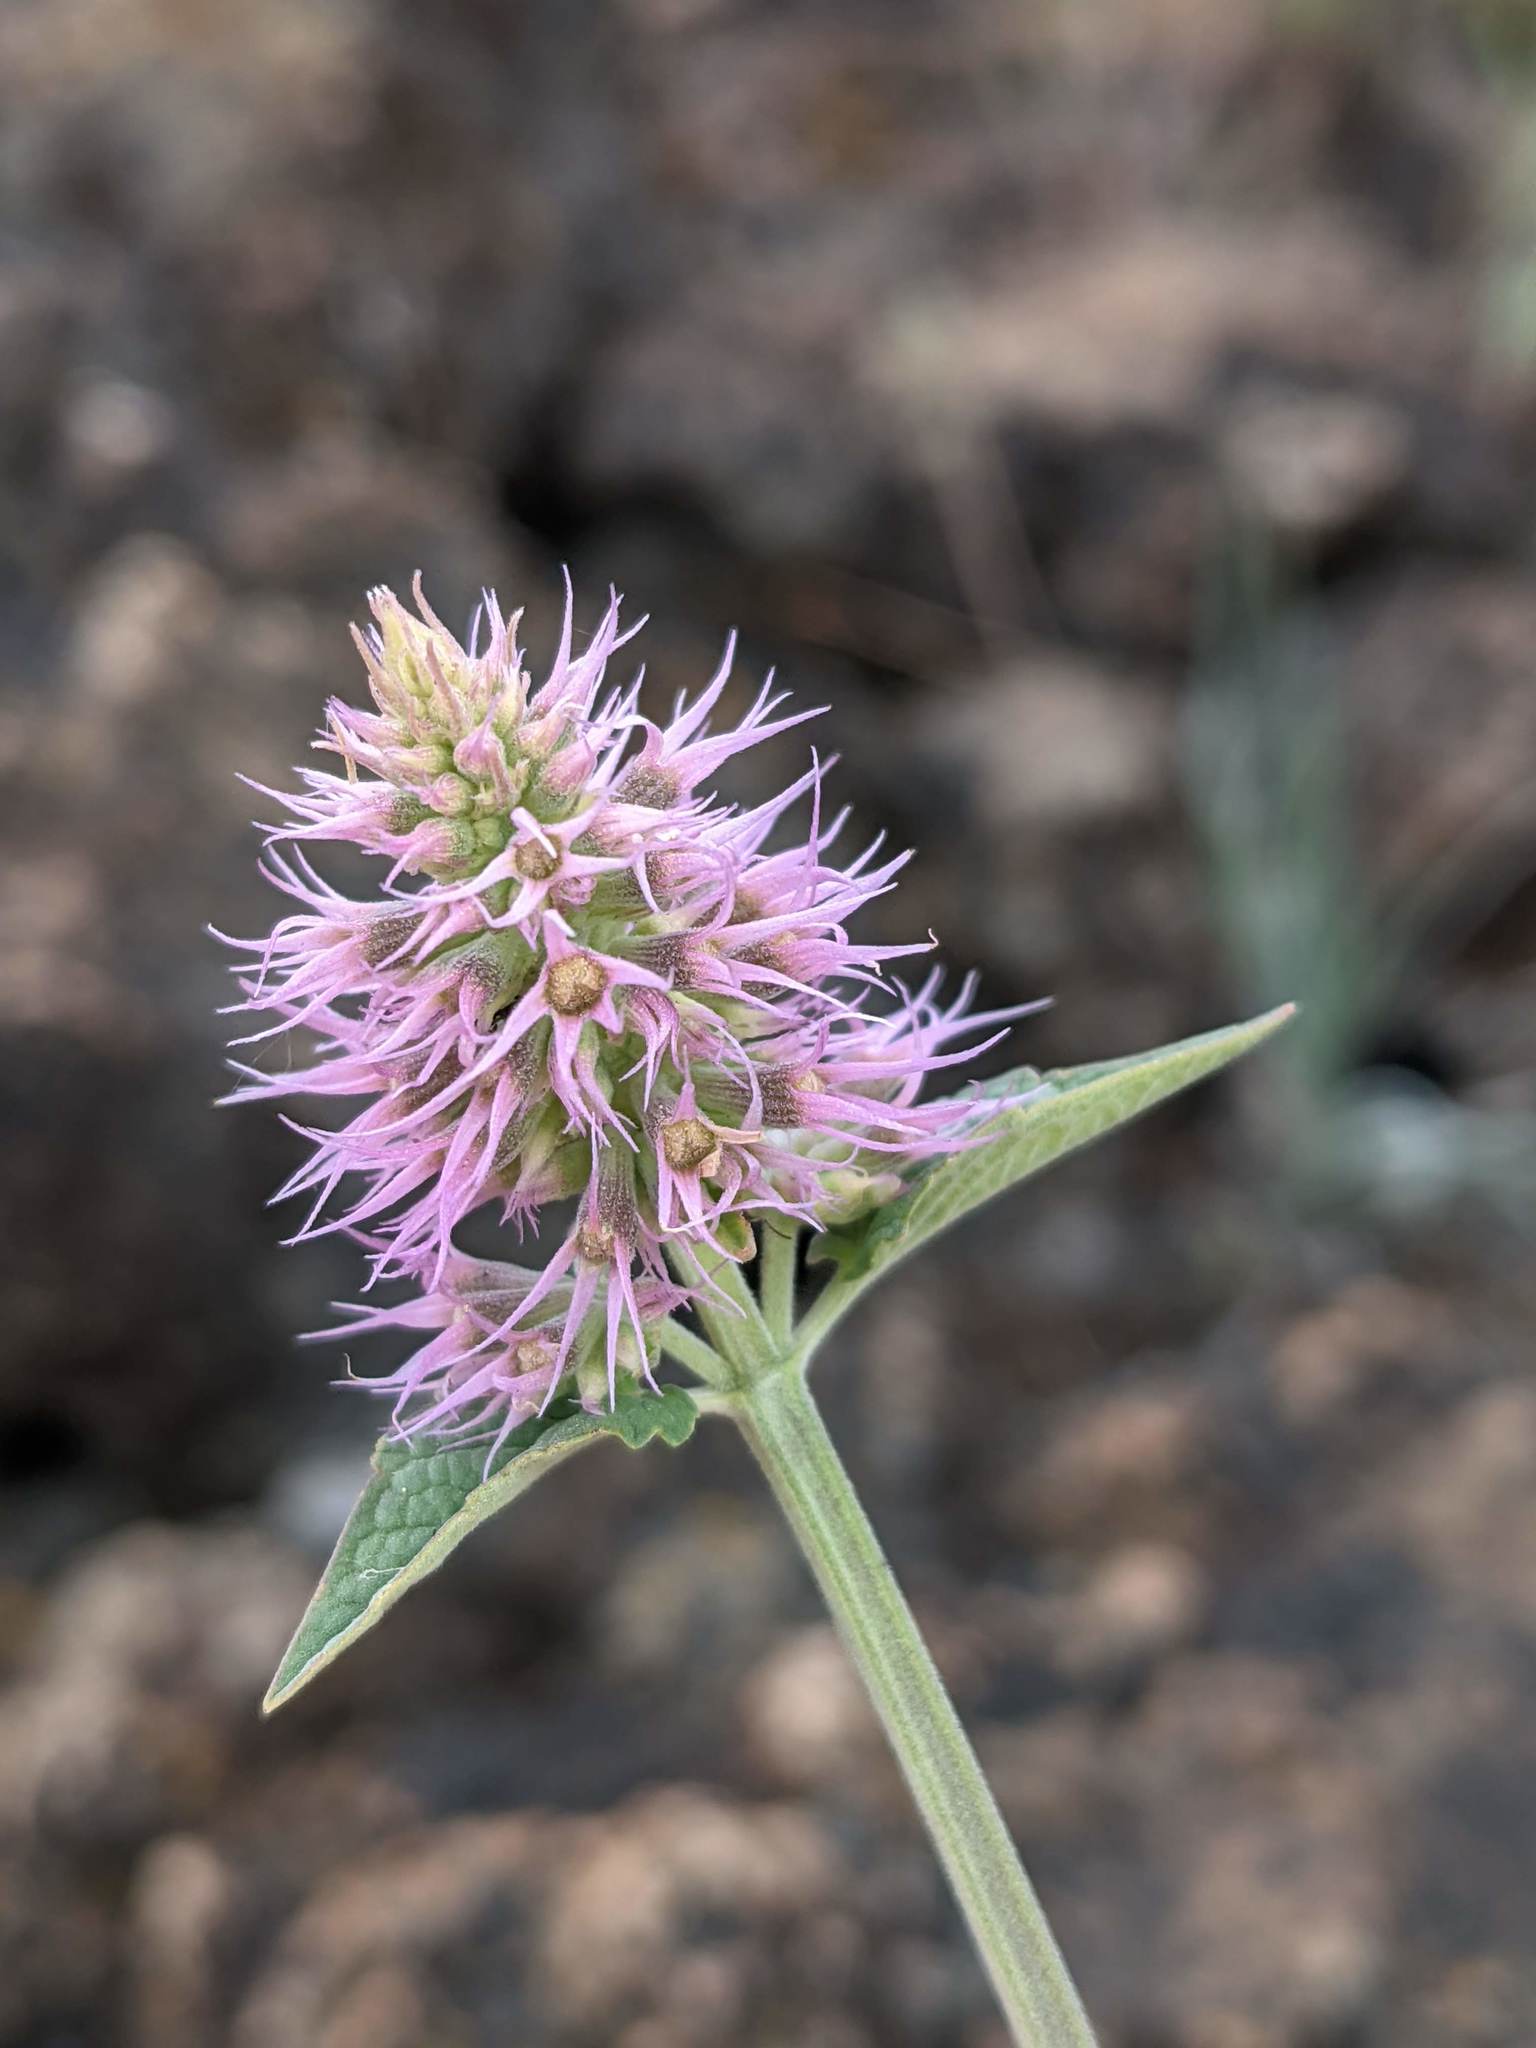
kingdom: Plantae
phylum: Tracheophyta
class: Magnoliopsida
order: Lamiales
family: Lamiaceae
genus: Agastache
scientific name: Agastache parvifolia
